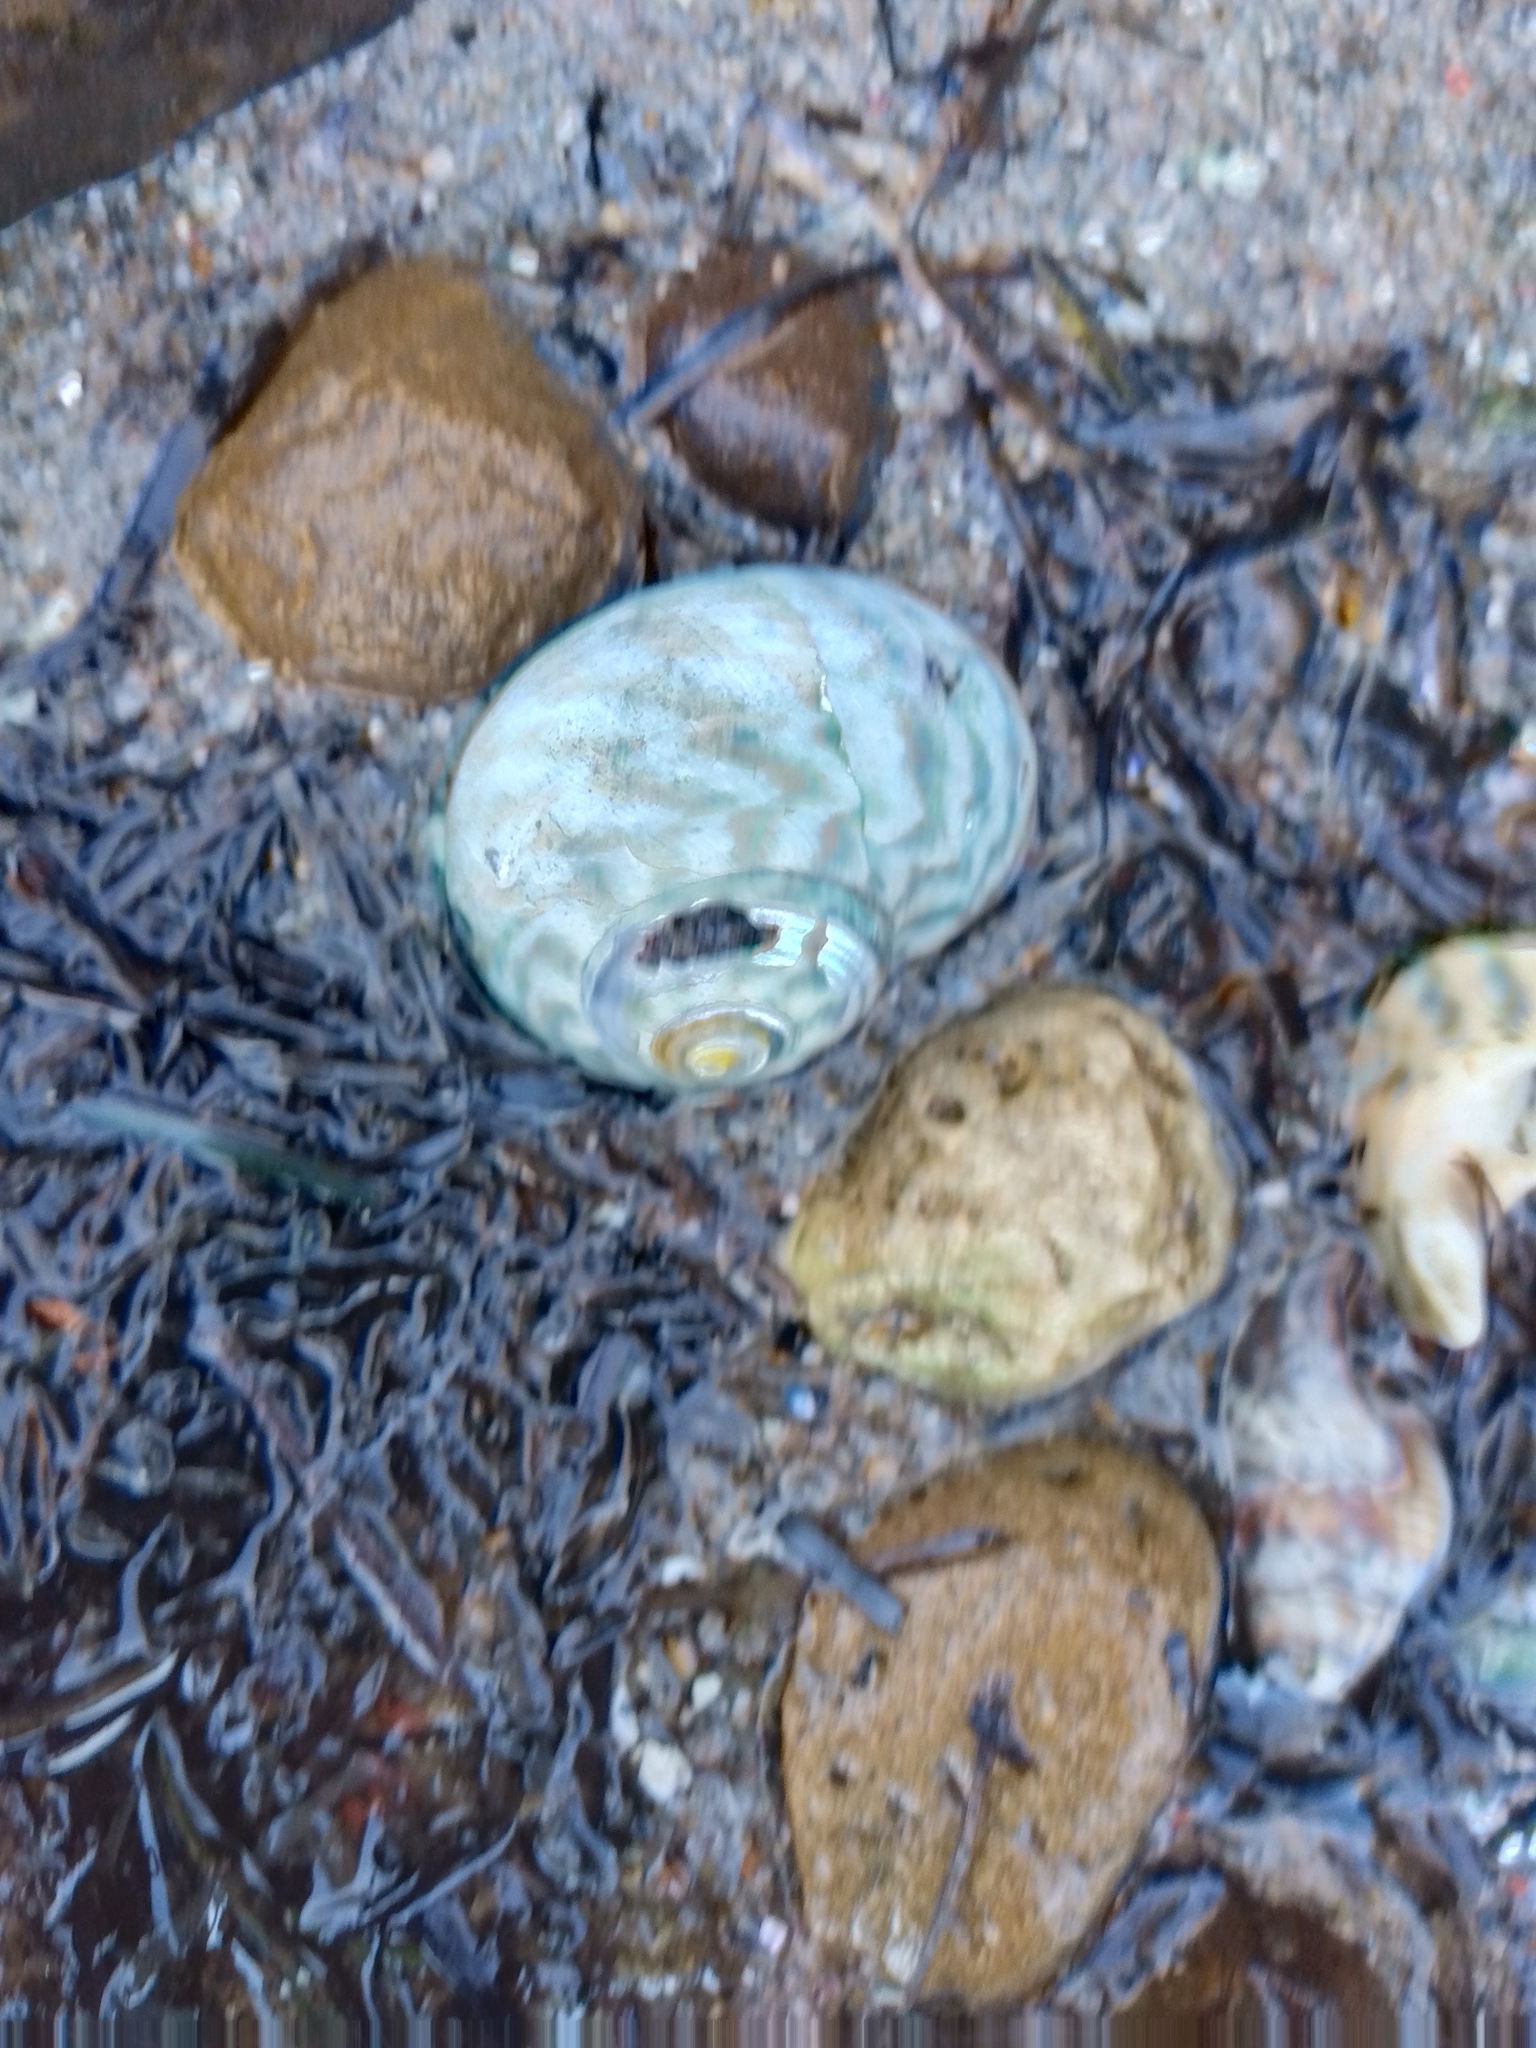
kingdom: Animalia
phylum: Mollusca
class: Gastropoda
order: Trochida
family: Turbinidae
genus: Lunella
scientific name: Lunella undulata
